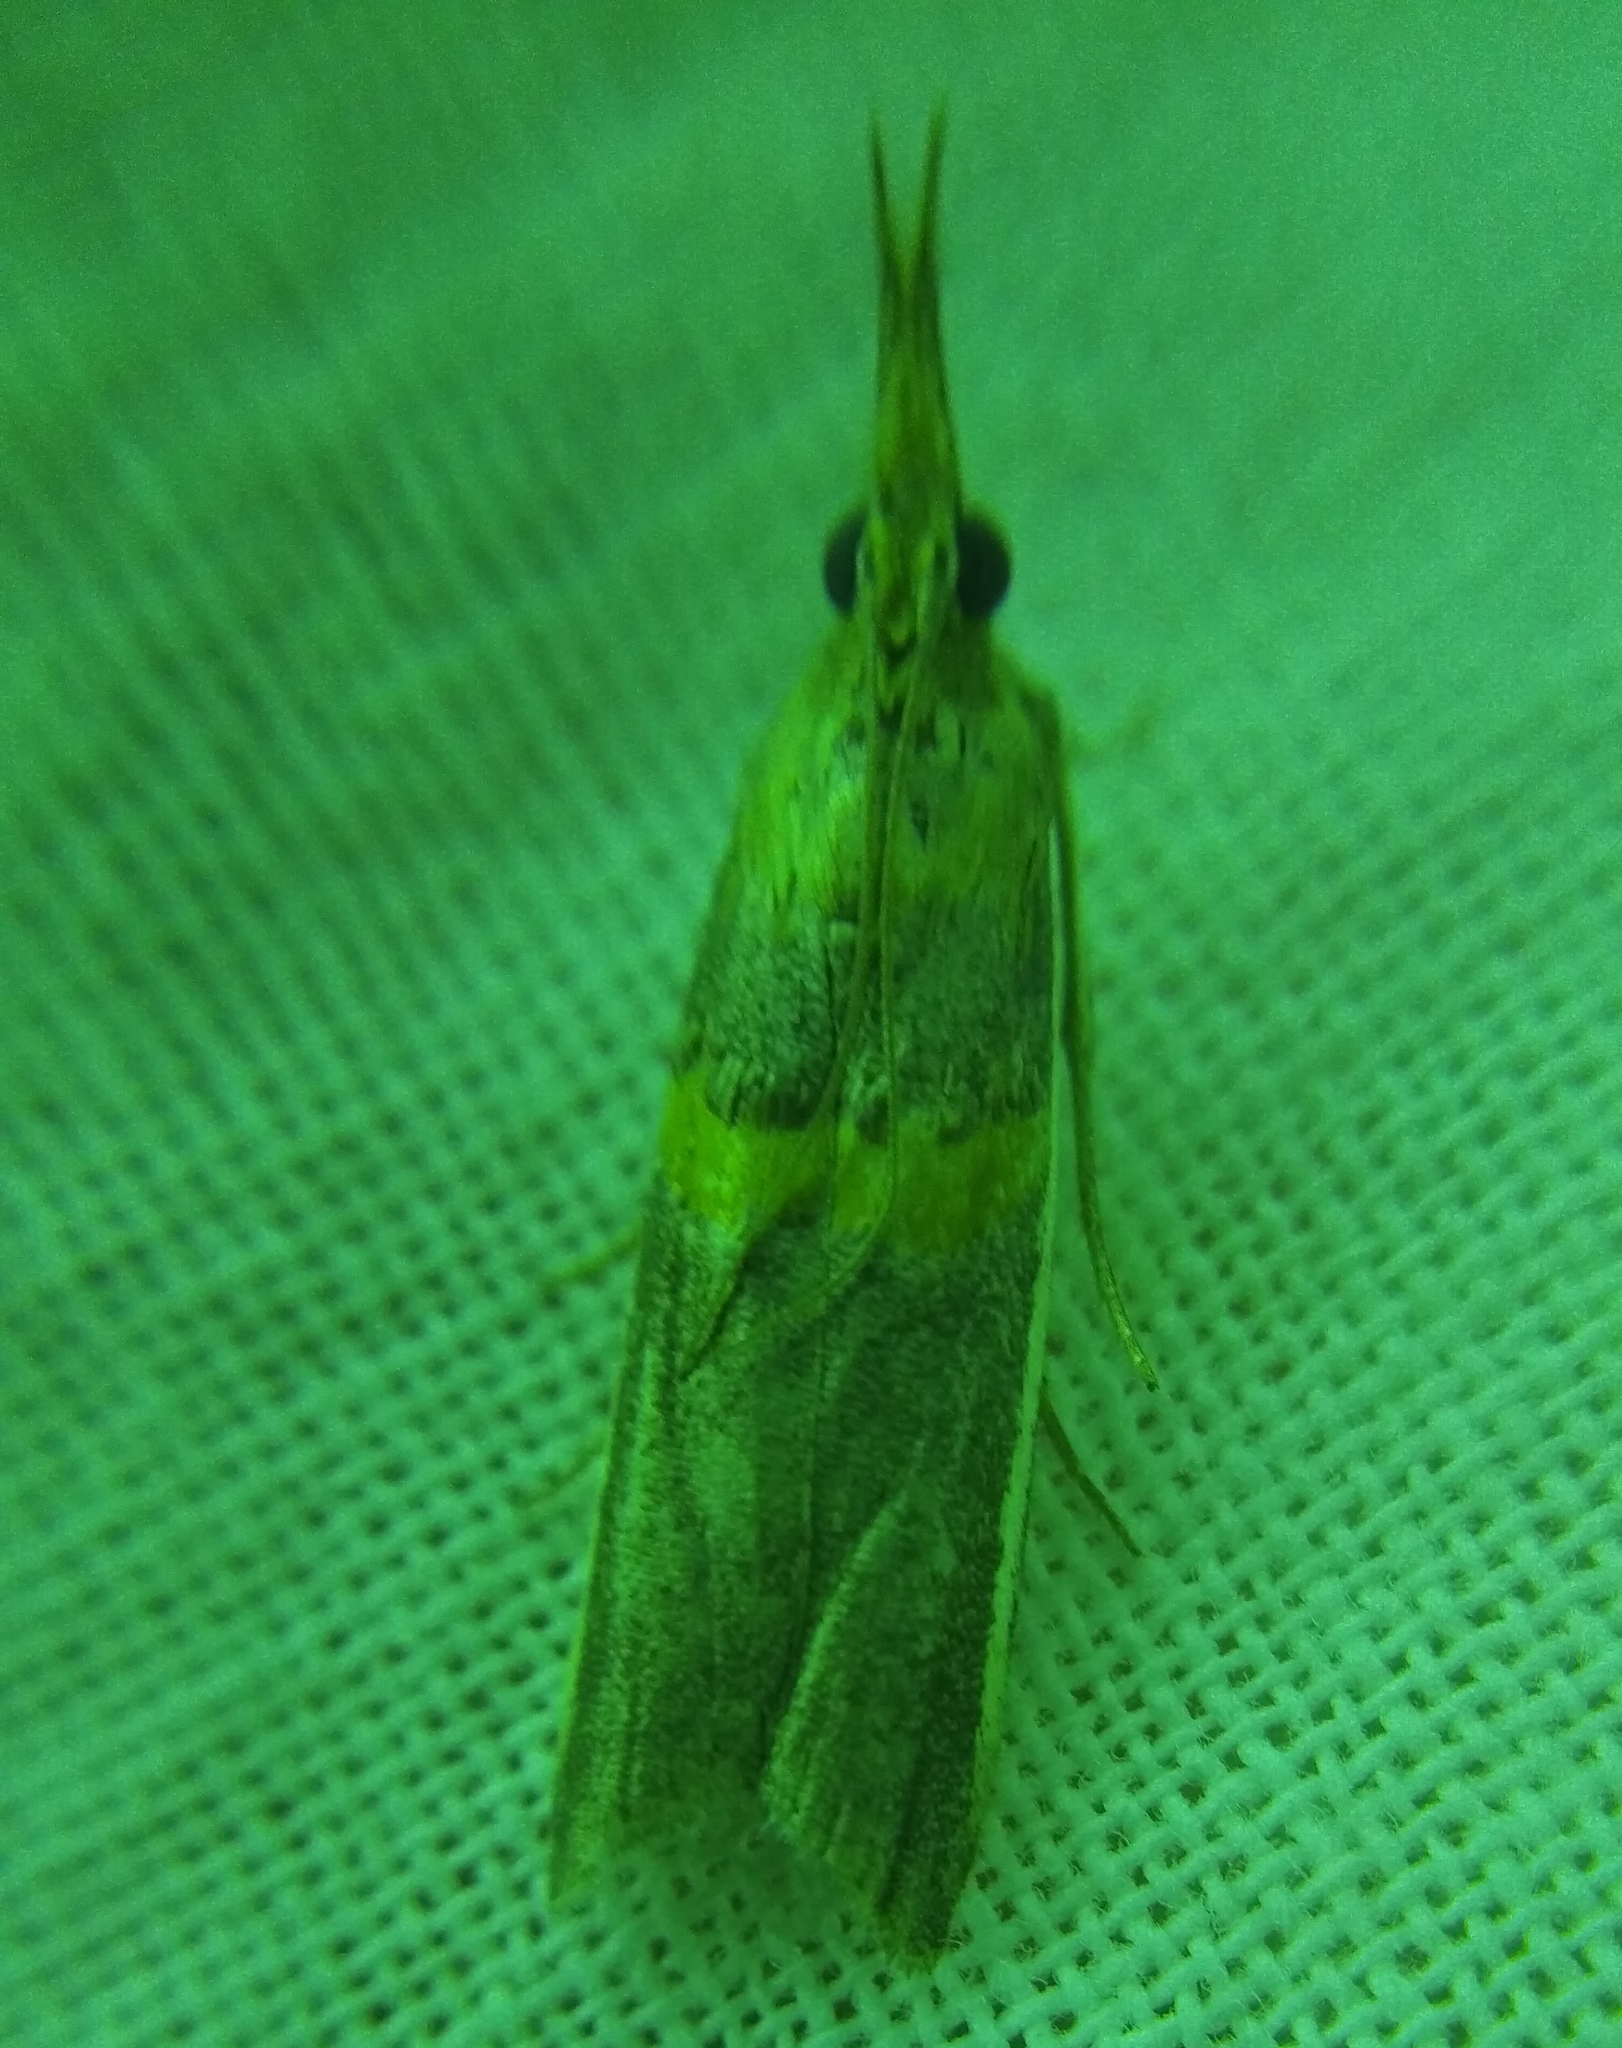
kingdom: Animalia
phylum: Arthropoda
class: Insecta
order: Lepidoptera
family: Pyralidae
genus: Etiella
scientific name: Etiella zinckenella
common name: Gold-banded etiella moth
